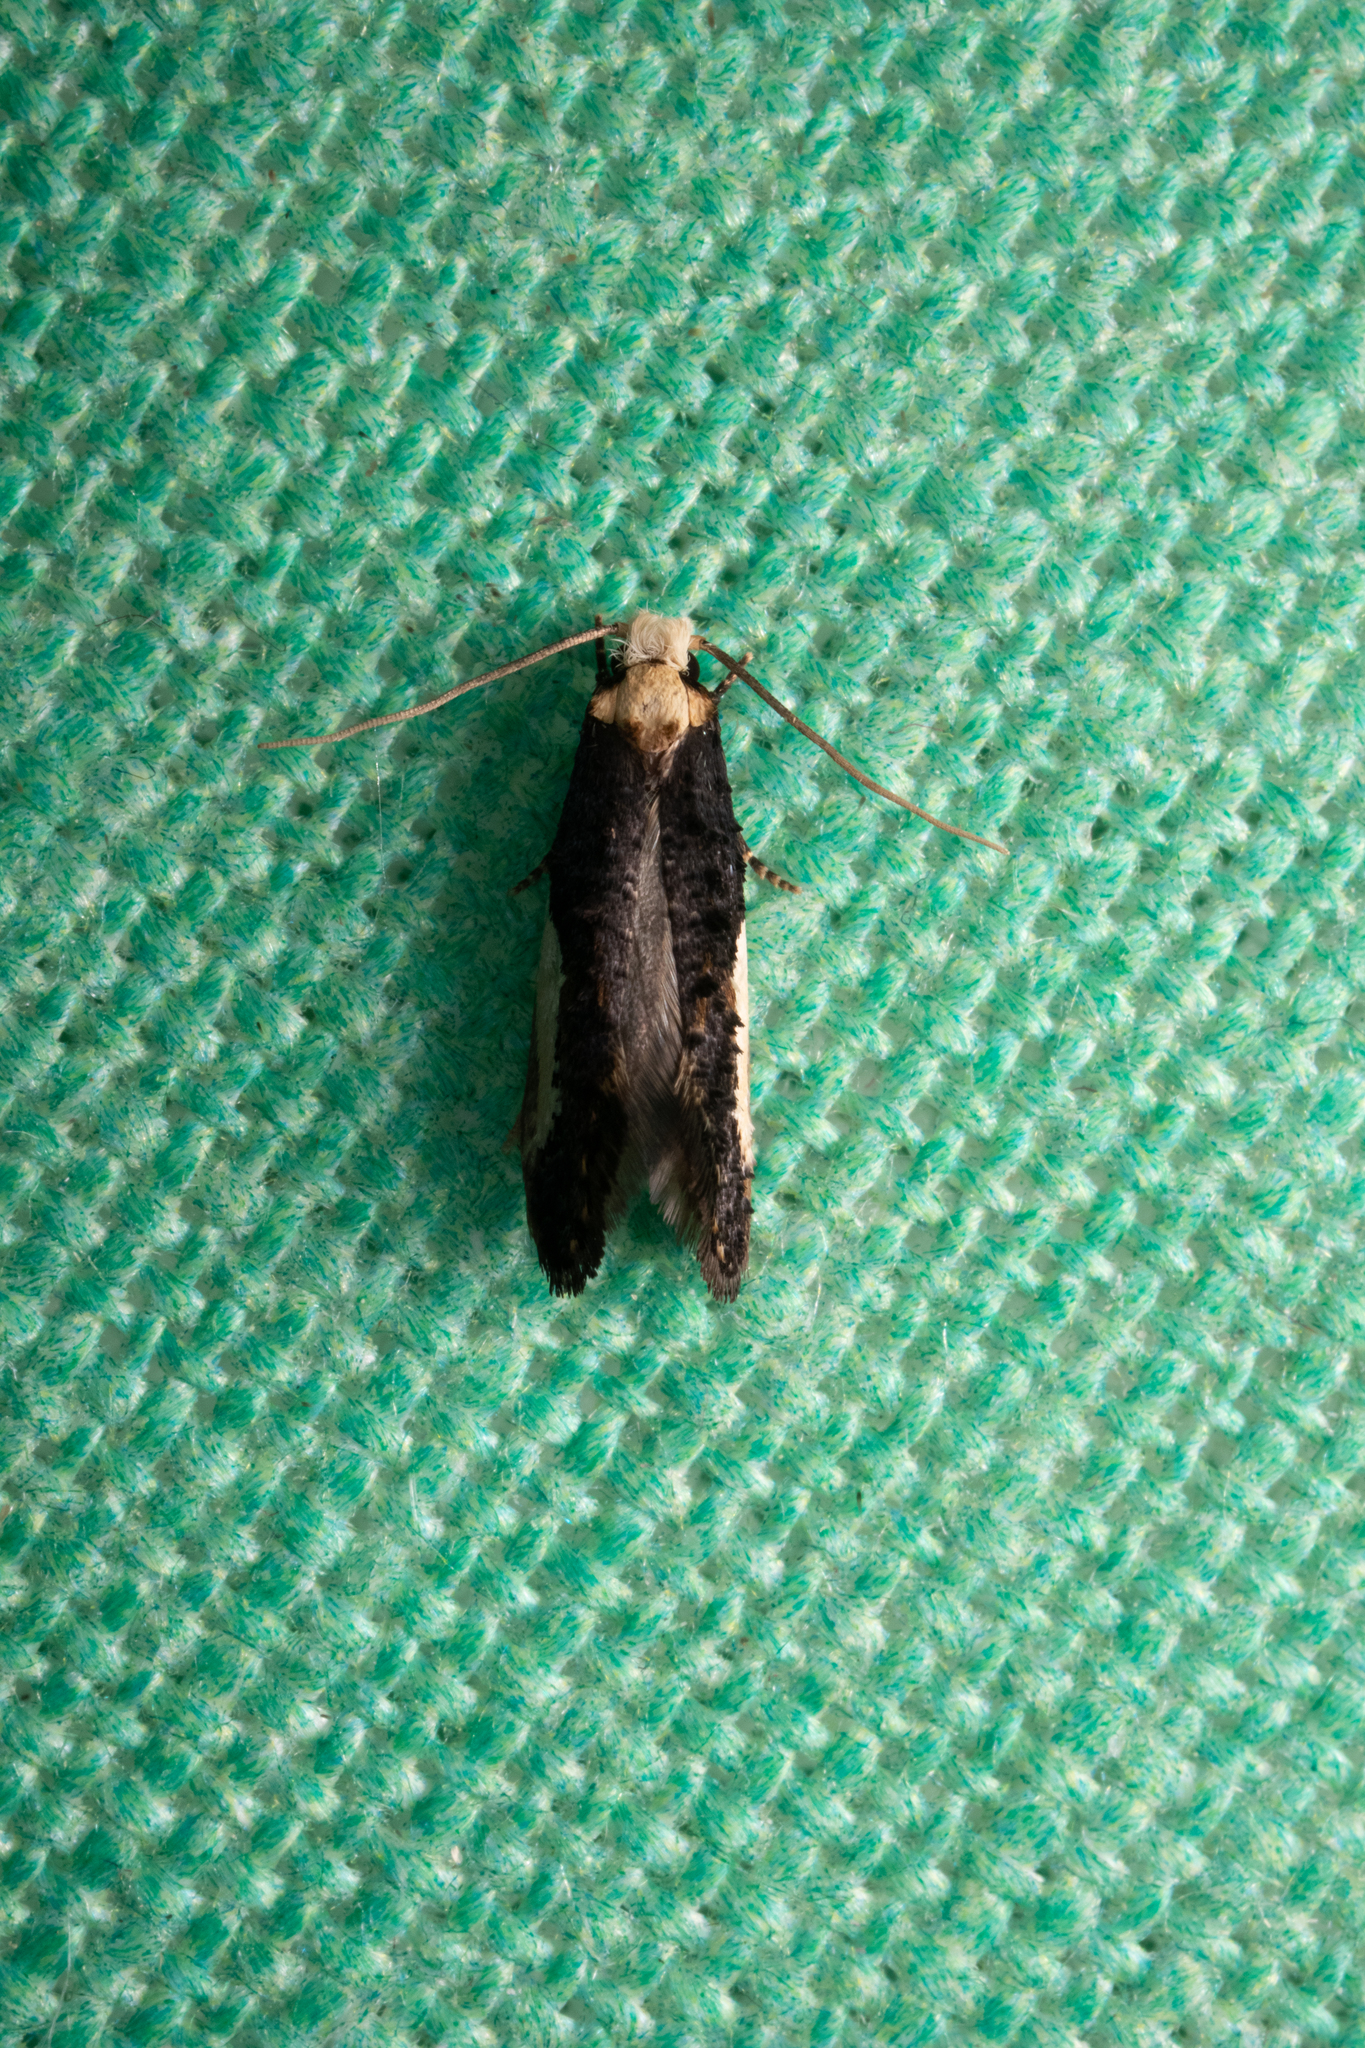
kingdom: Animalia
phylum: Arthropoda
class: Insecta
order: Lepidoptera
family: Tineidae
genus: Monopis
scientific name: Monopis longella
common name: Pavlovski's monopis moth
